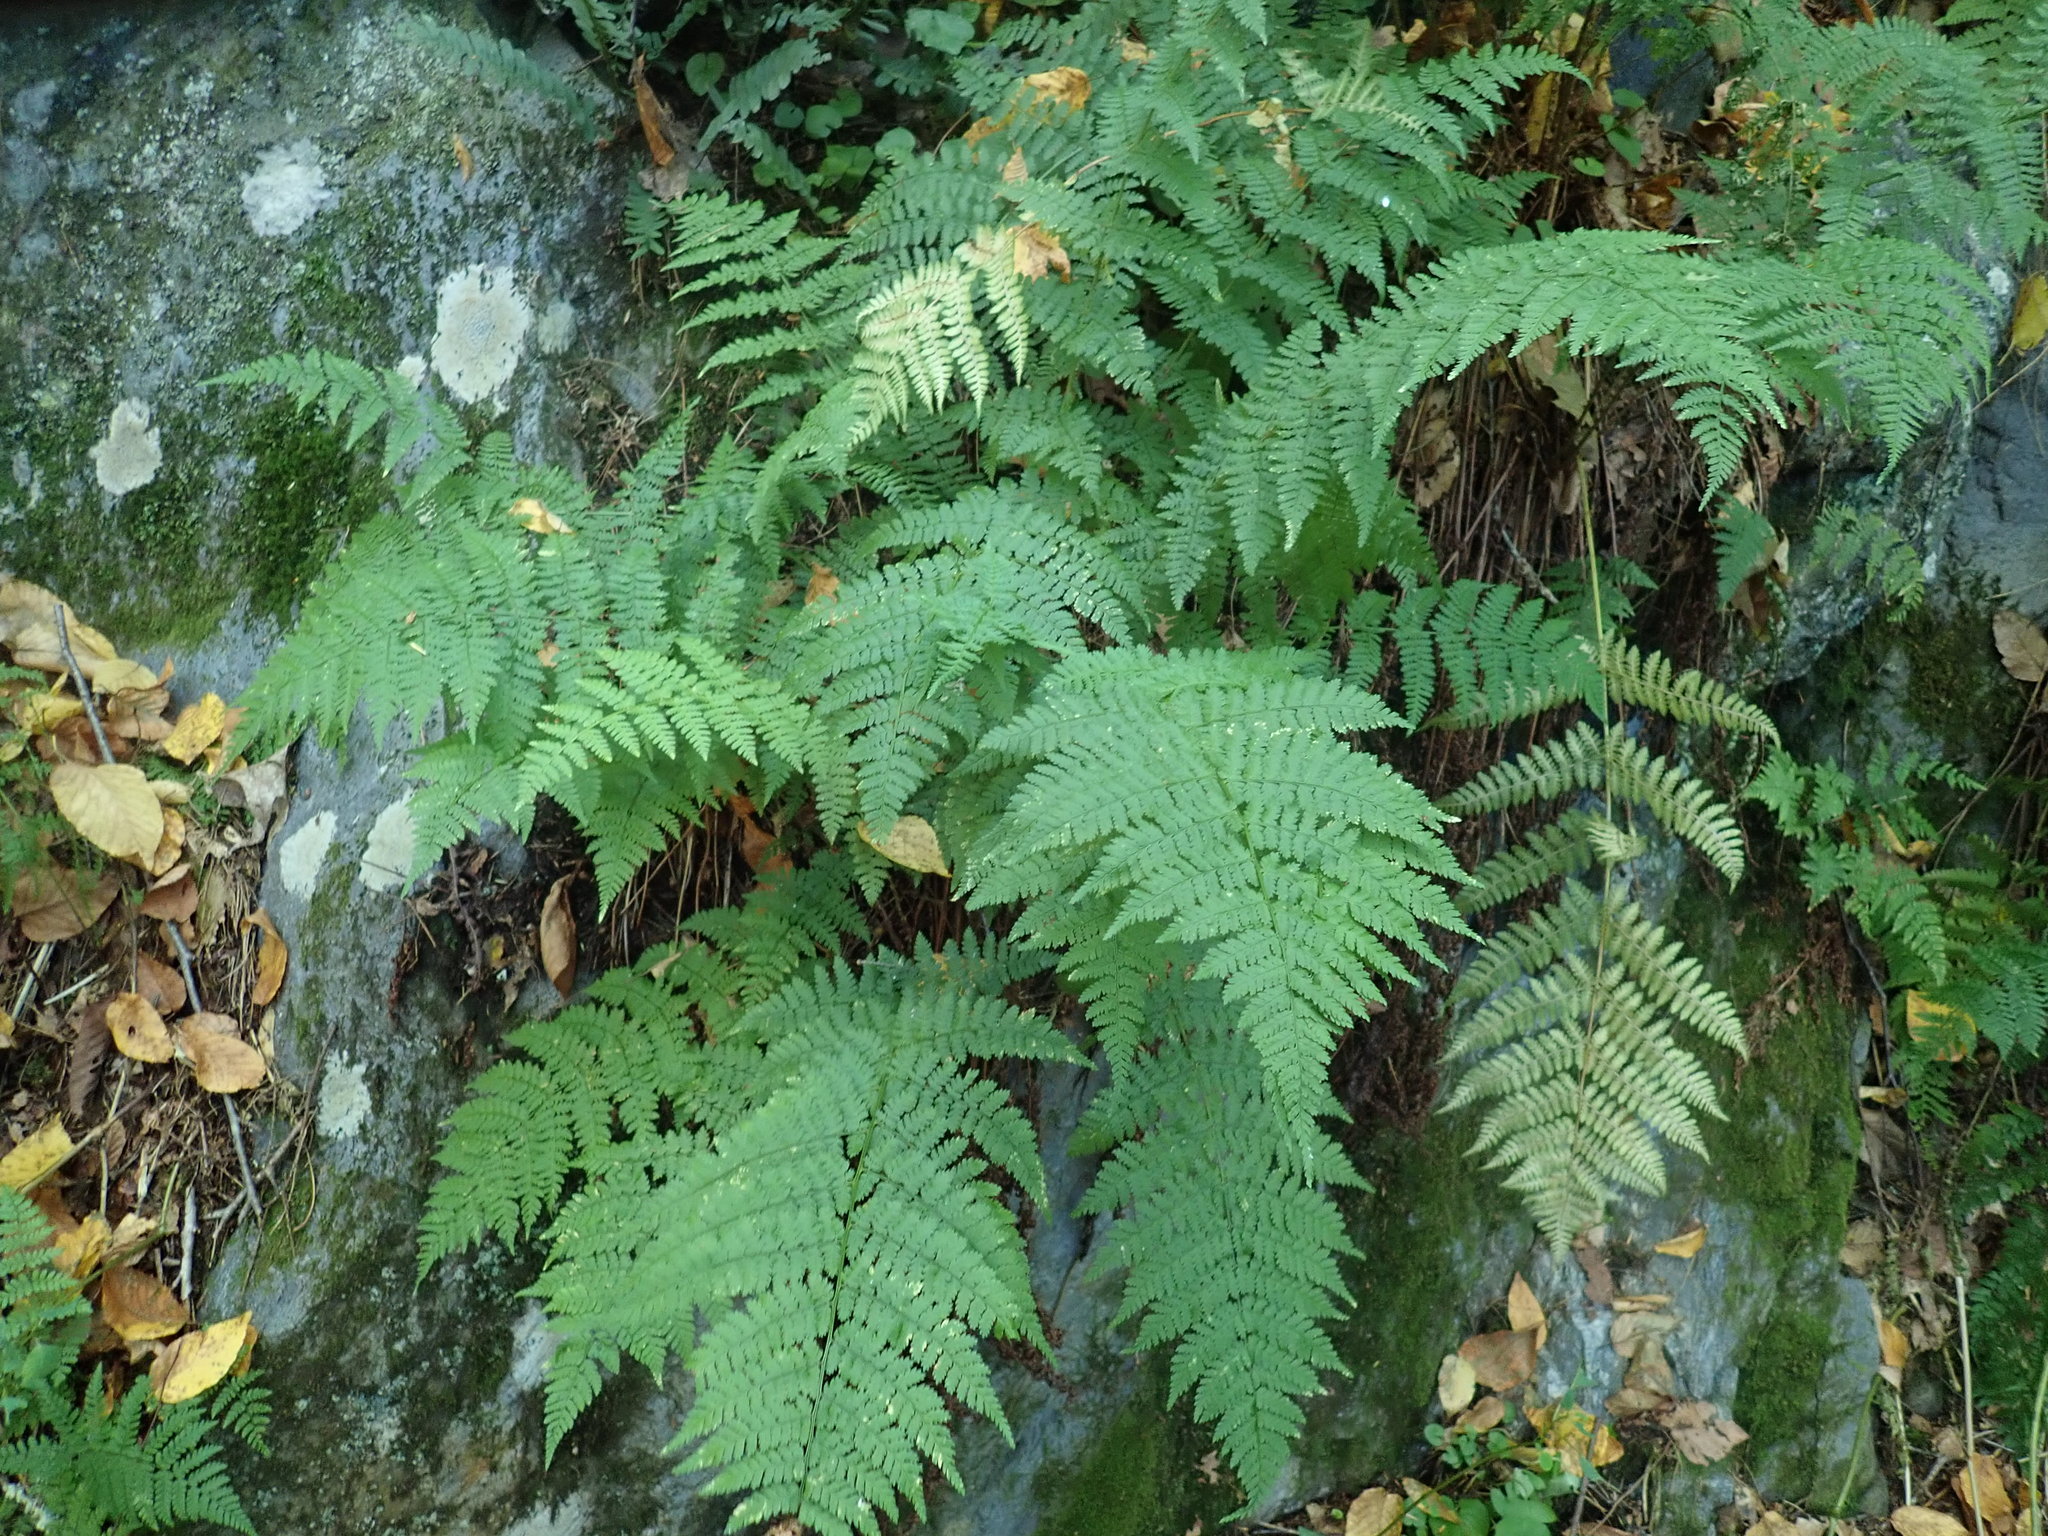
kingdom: Plantae
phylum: Tracheophyta
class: Polypodiopsida
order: Polypodiales
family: Dryopteridaceae
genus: Dryopteris
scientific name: Dryopteris intermedia
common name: Evergreen wood fern
